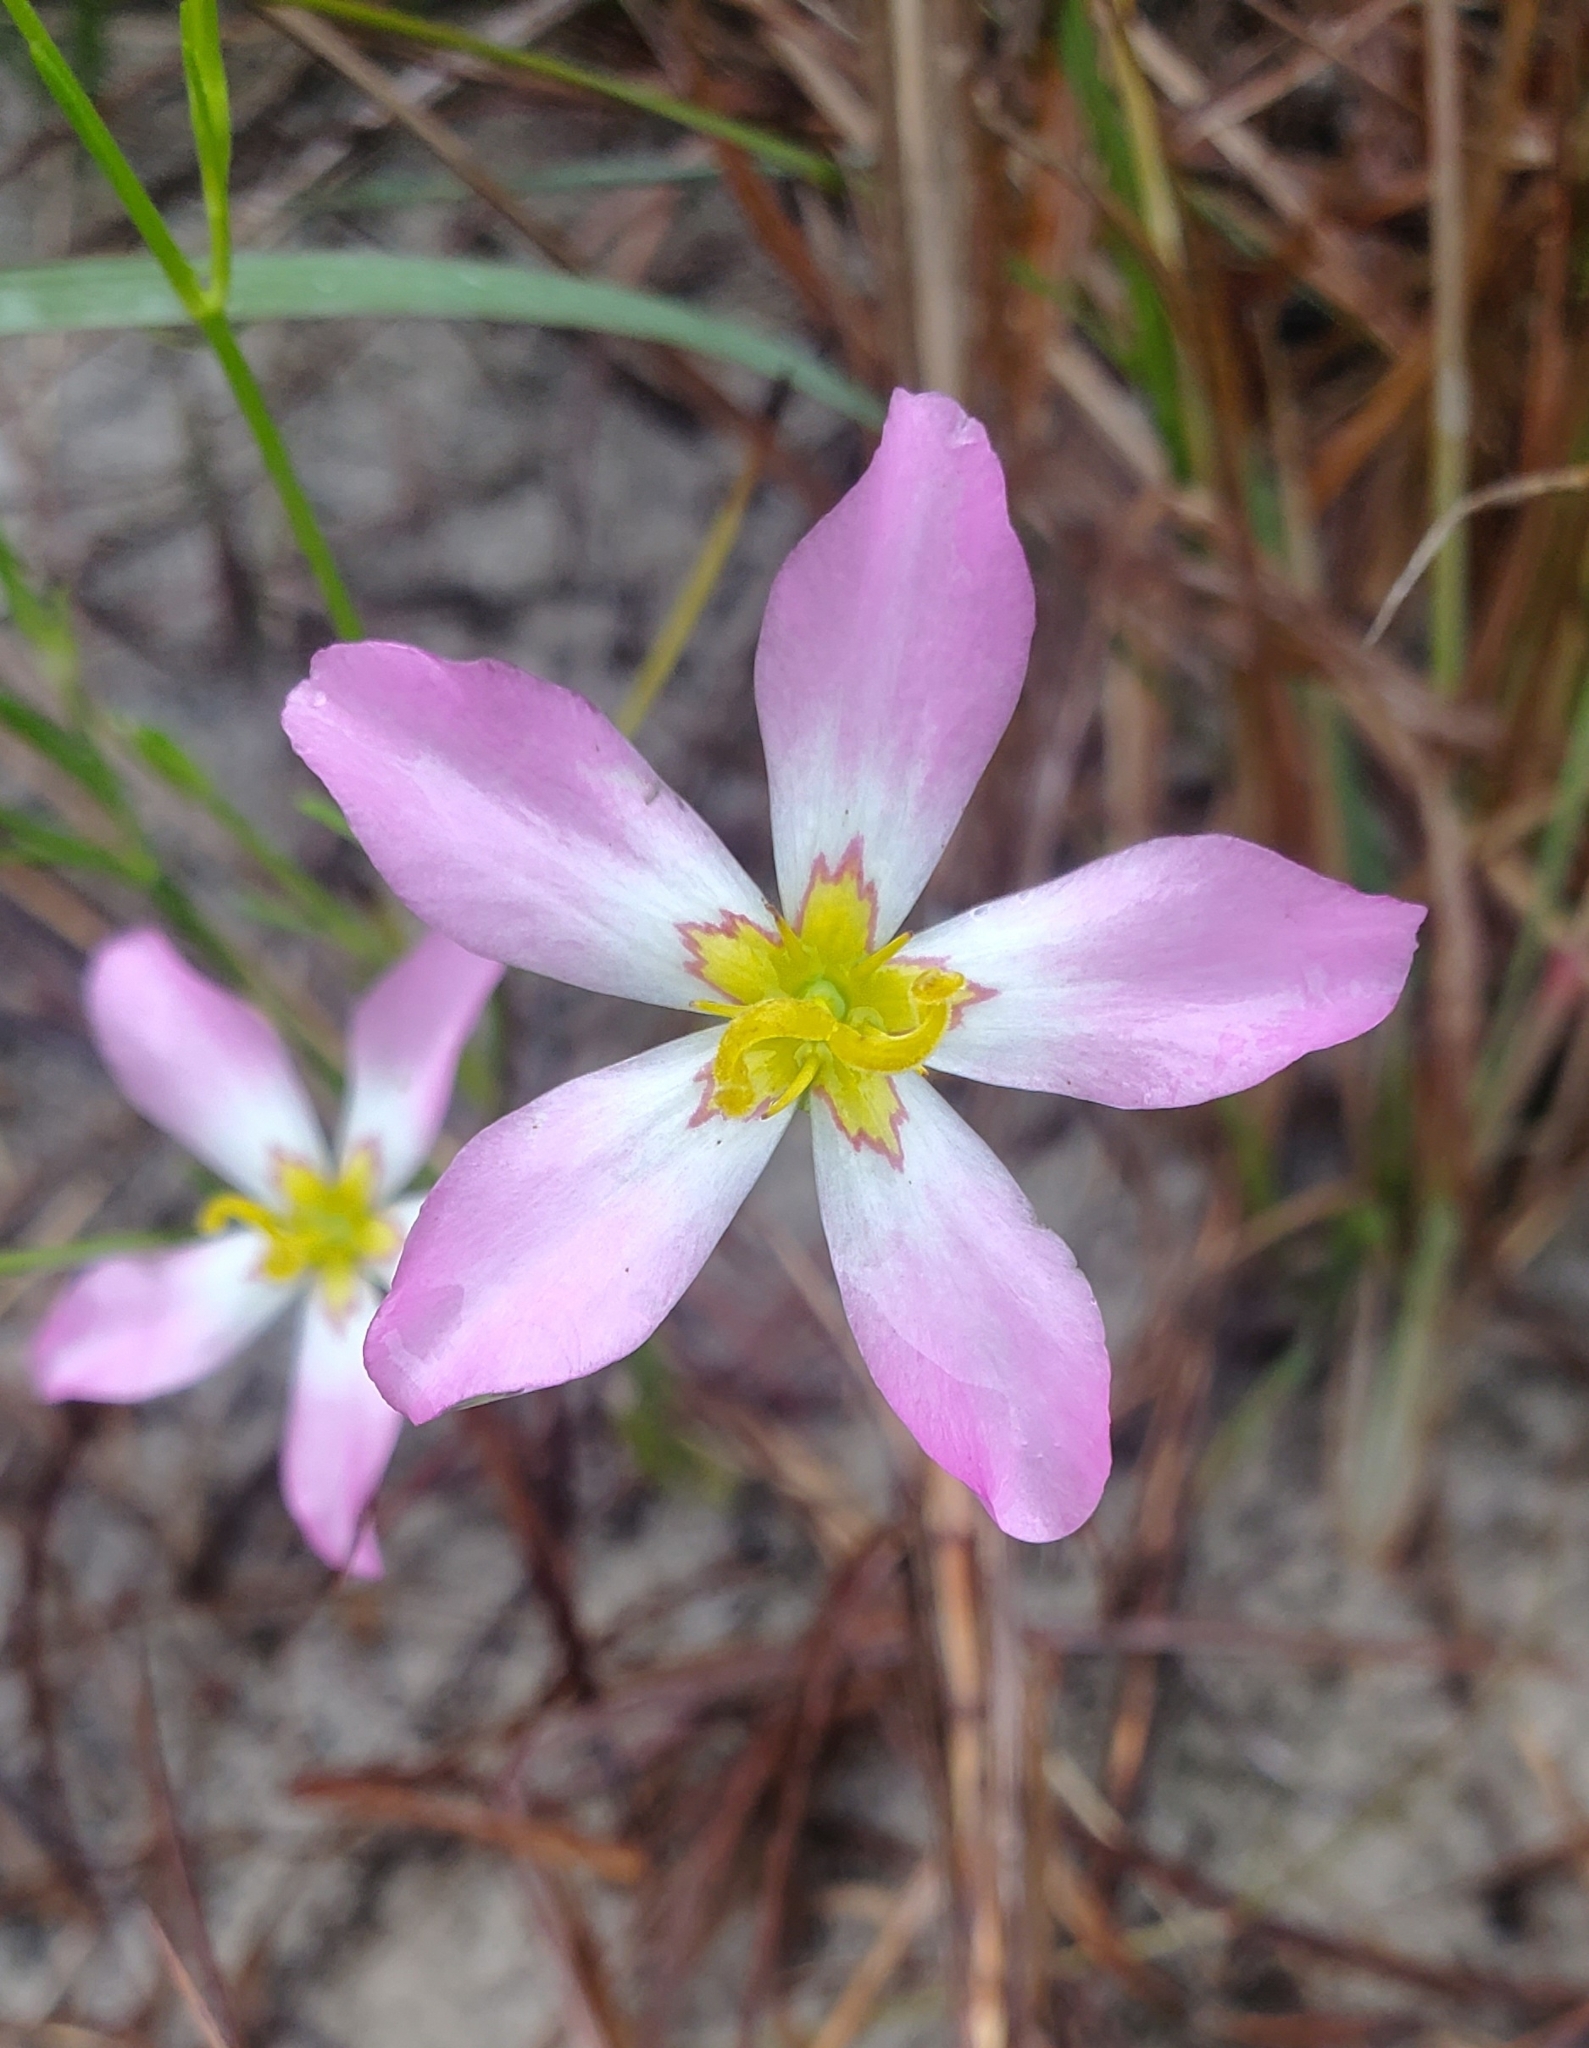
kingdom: Plantae
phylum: Tracheophyta
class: Magnoliopsida
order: Gentianales
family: Gentianaceae
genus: Sabatia
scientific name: Sabatia stellaris
